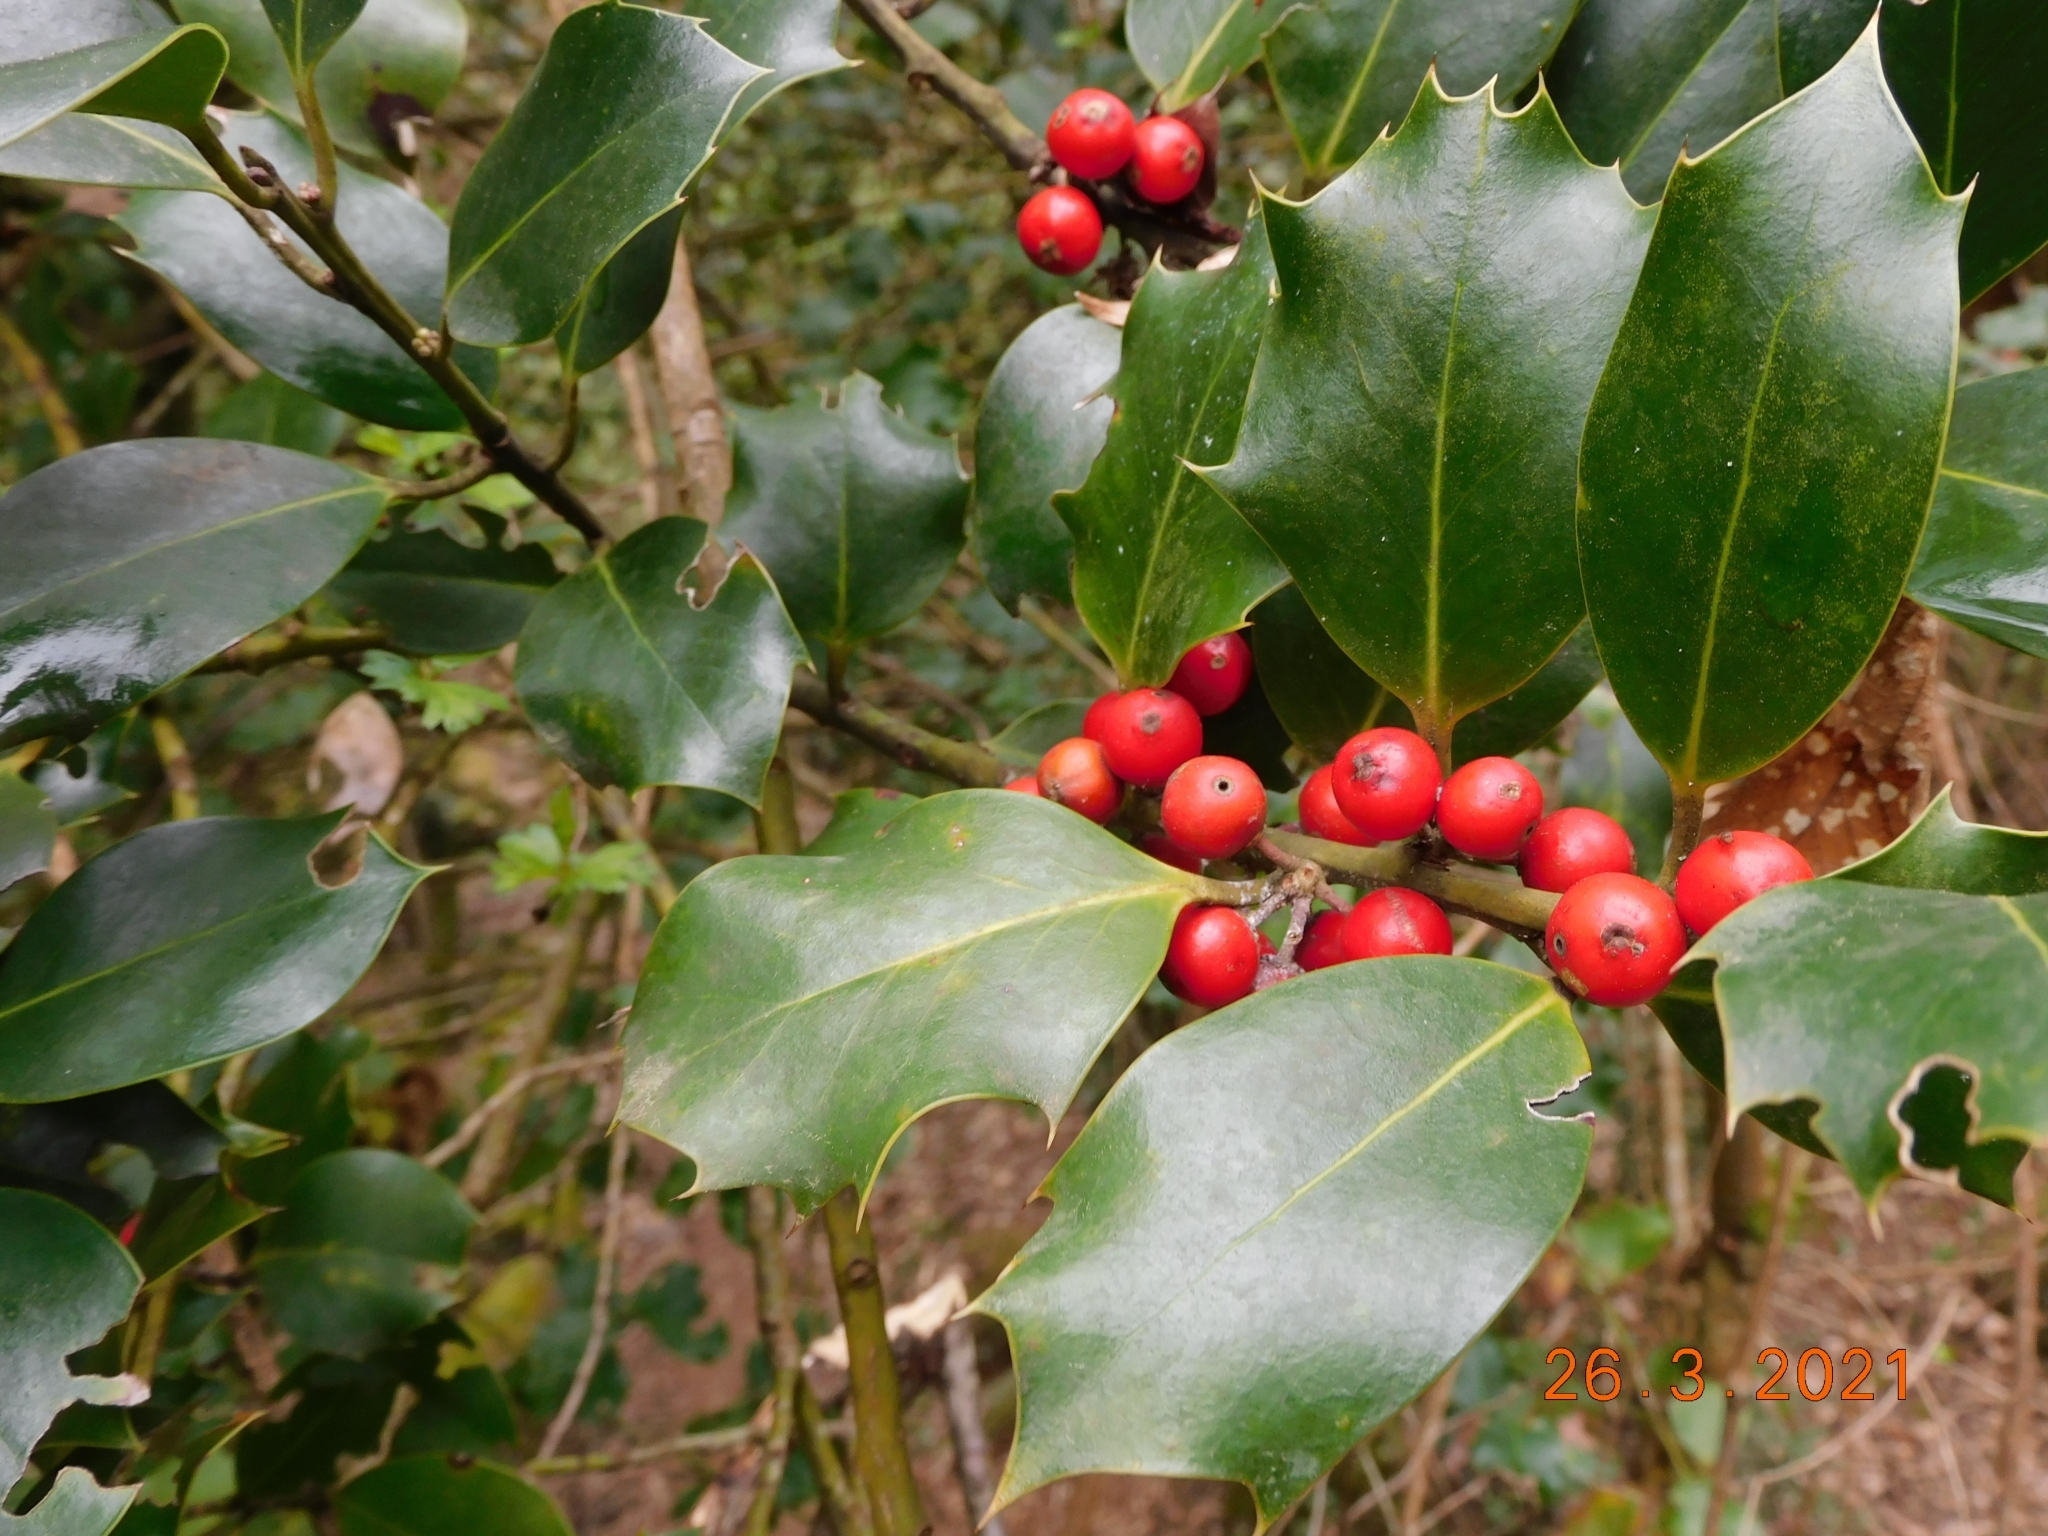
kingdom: Plantae
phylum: Tracheophyta
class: Magnoliopsida
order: Aquifoliales
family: Aquifoliaceae
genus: Ilex
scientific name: Ilex aquifolium
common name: English holly
